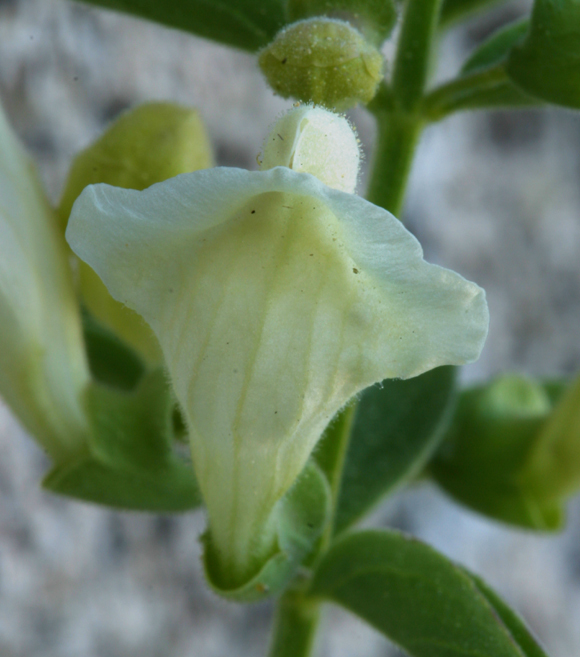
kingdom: Plantae
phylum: Tracheophyta
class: Magnoliopsida
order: Lamiales
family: Lamiaceae
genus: Scutellaria
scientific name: Scutellaria californica
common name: California scullcap
